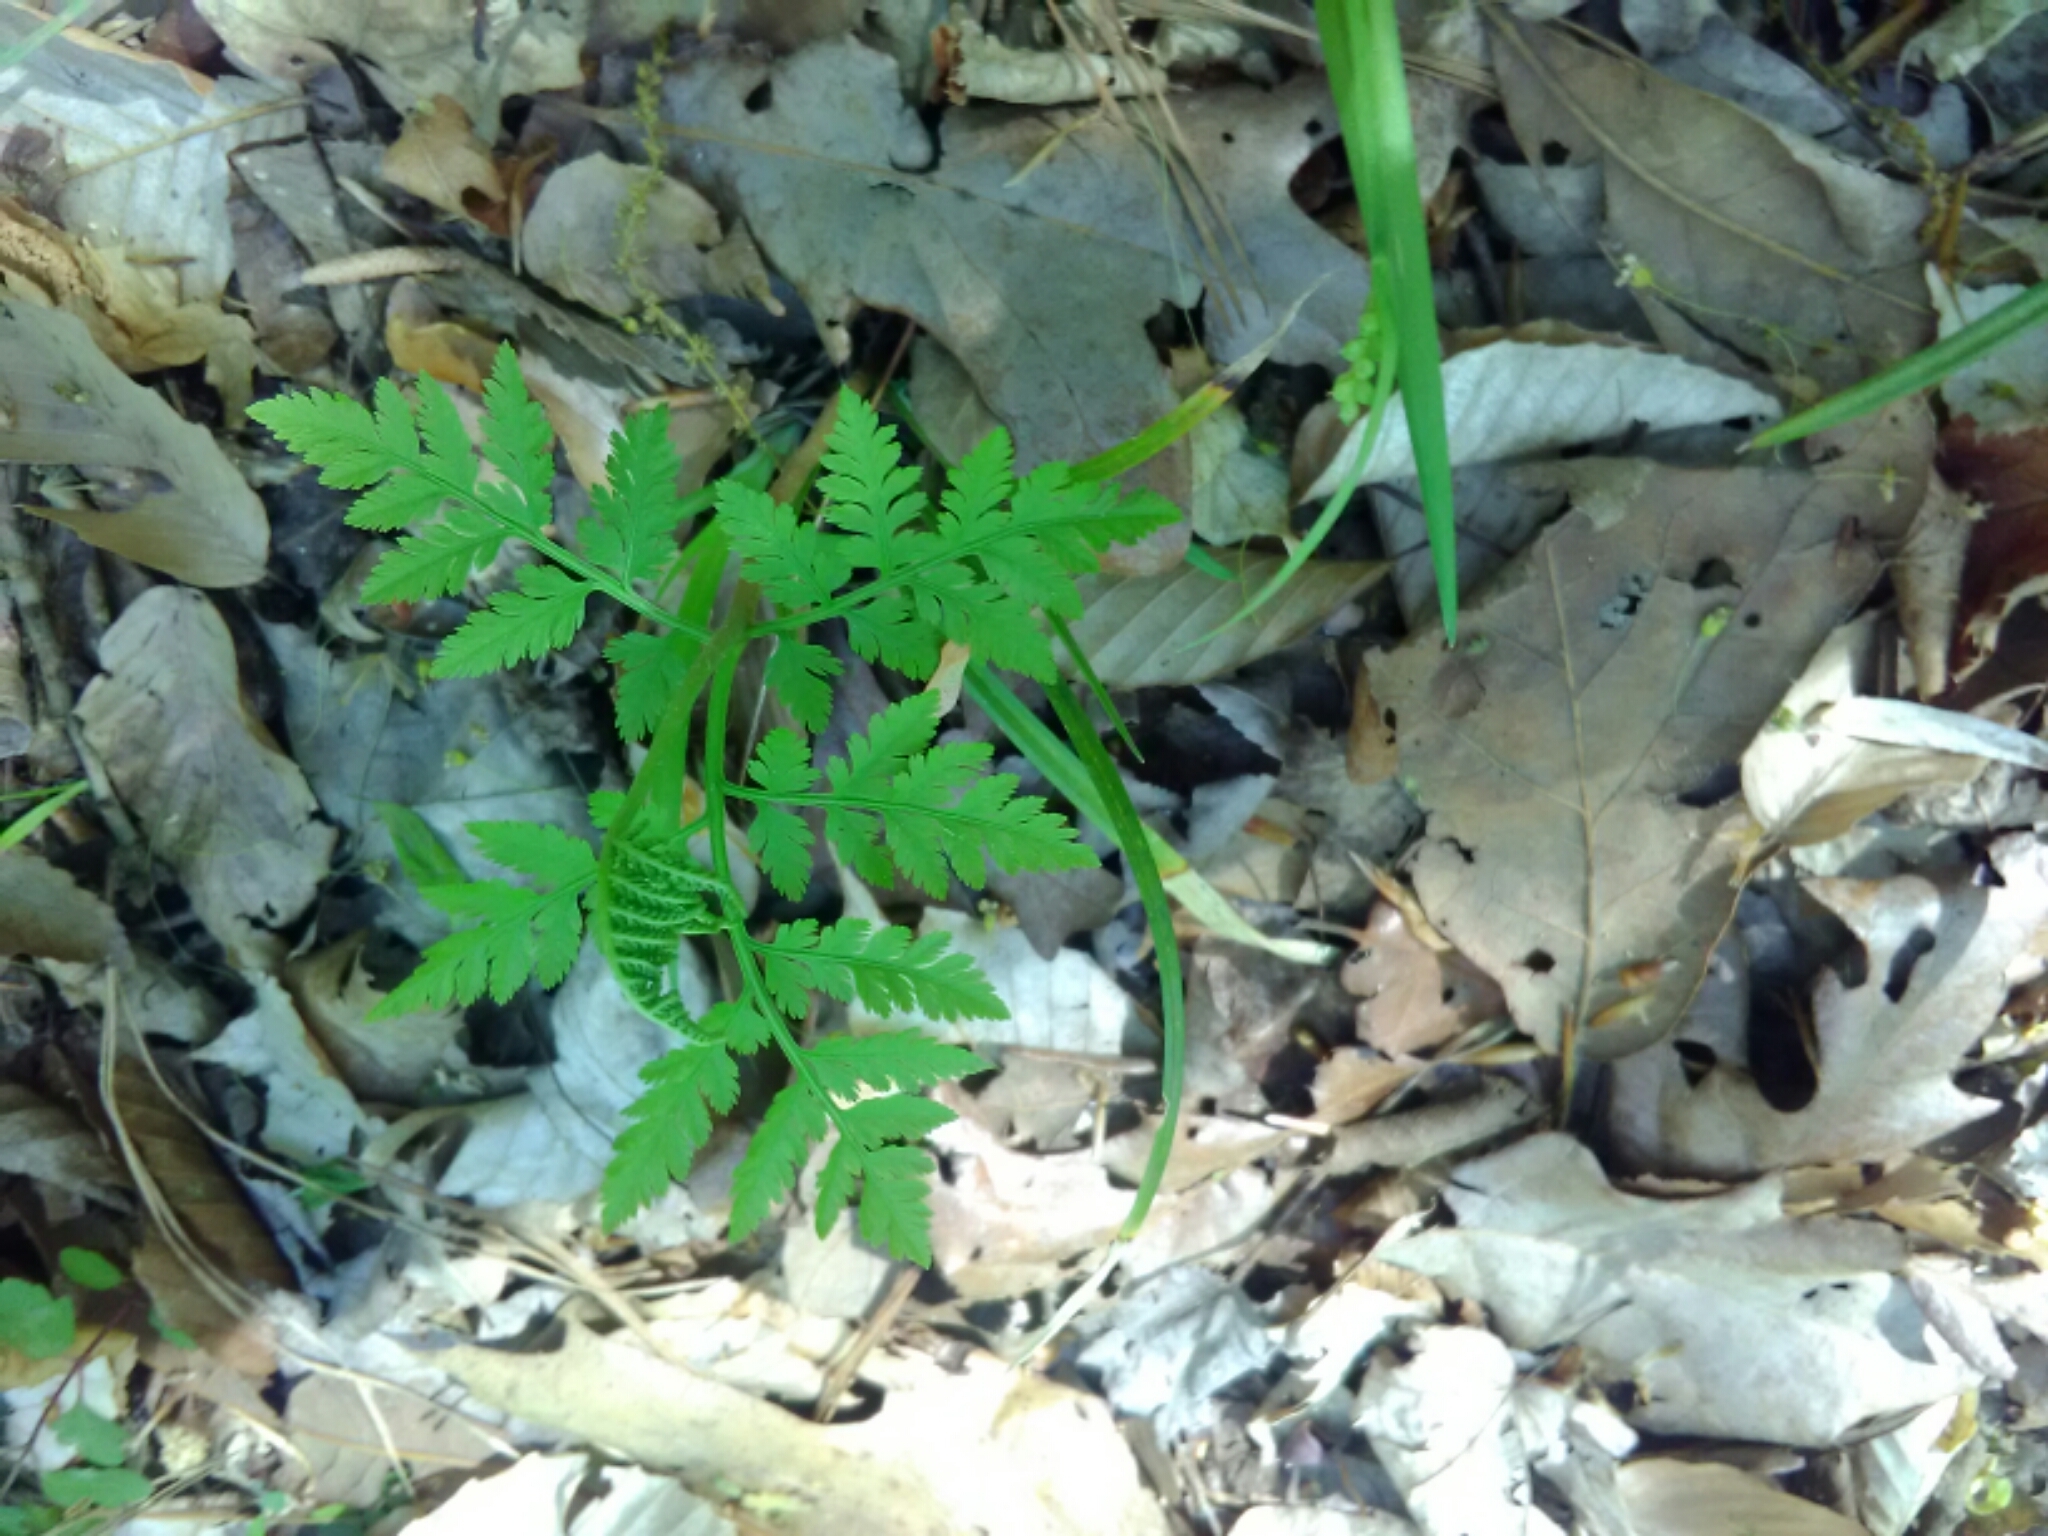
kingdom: Plantae
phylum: Tracheophyta
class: Polypodiopsida
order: Ophioglossales
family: Ophioglossaceae
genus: Botrypus
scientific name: Botrypus virginianus
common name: Common grapefern
